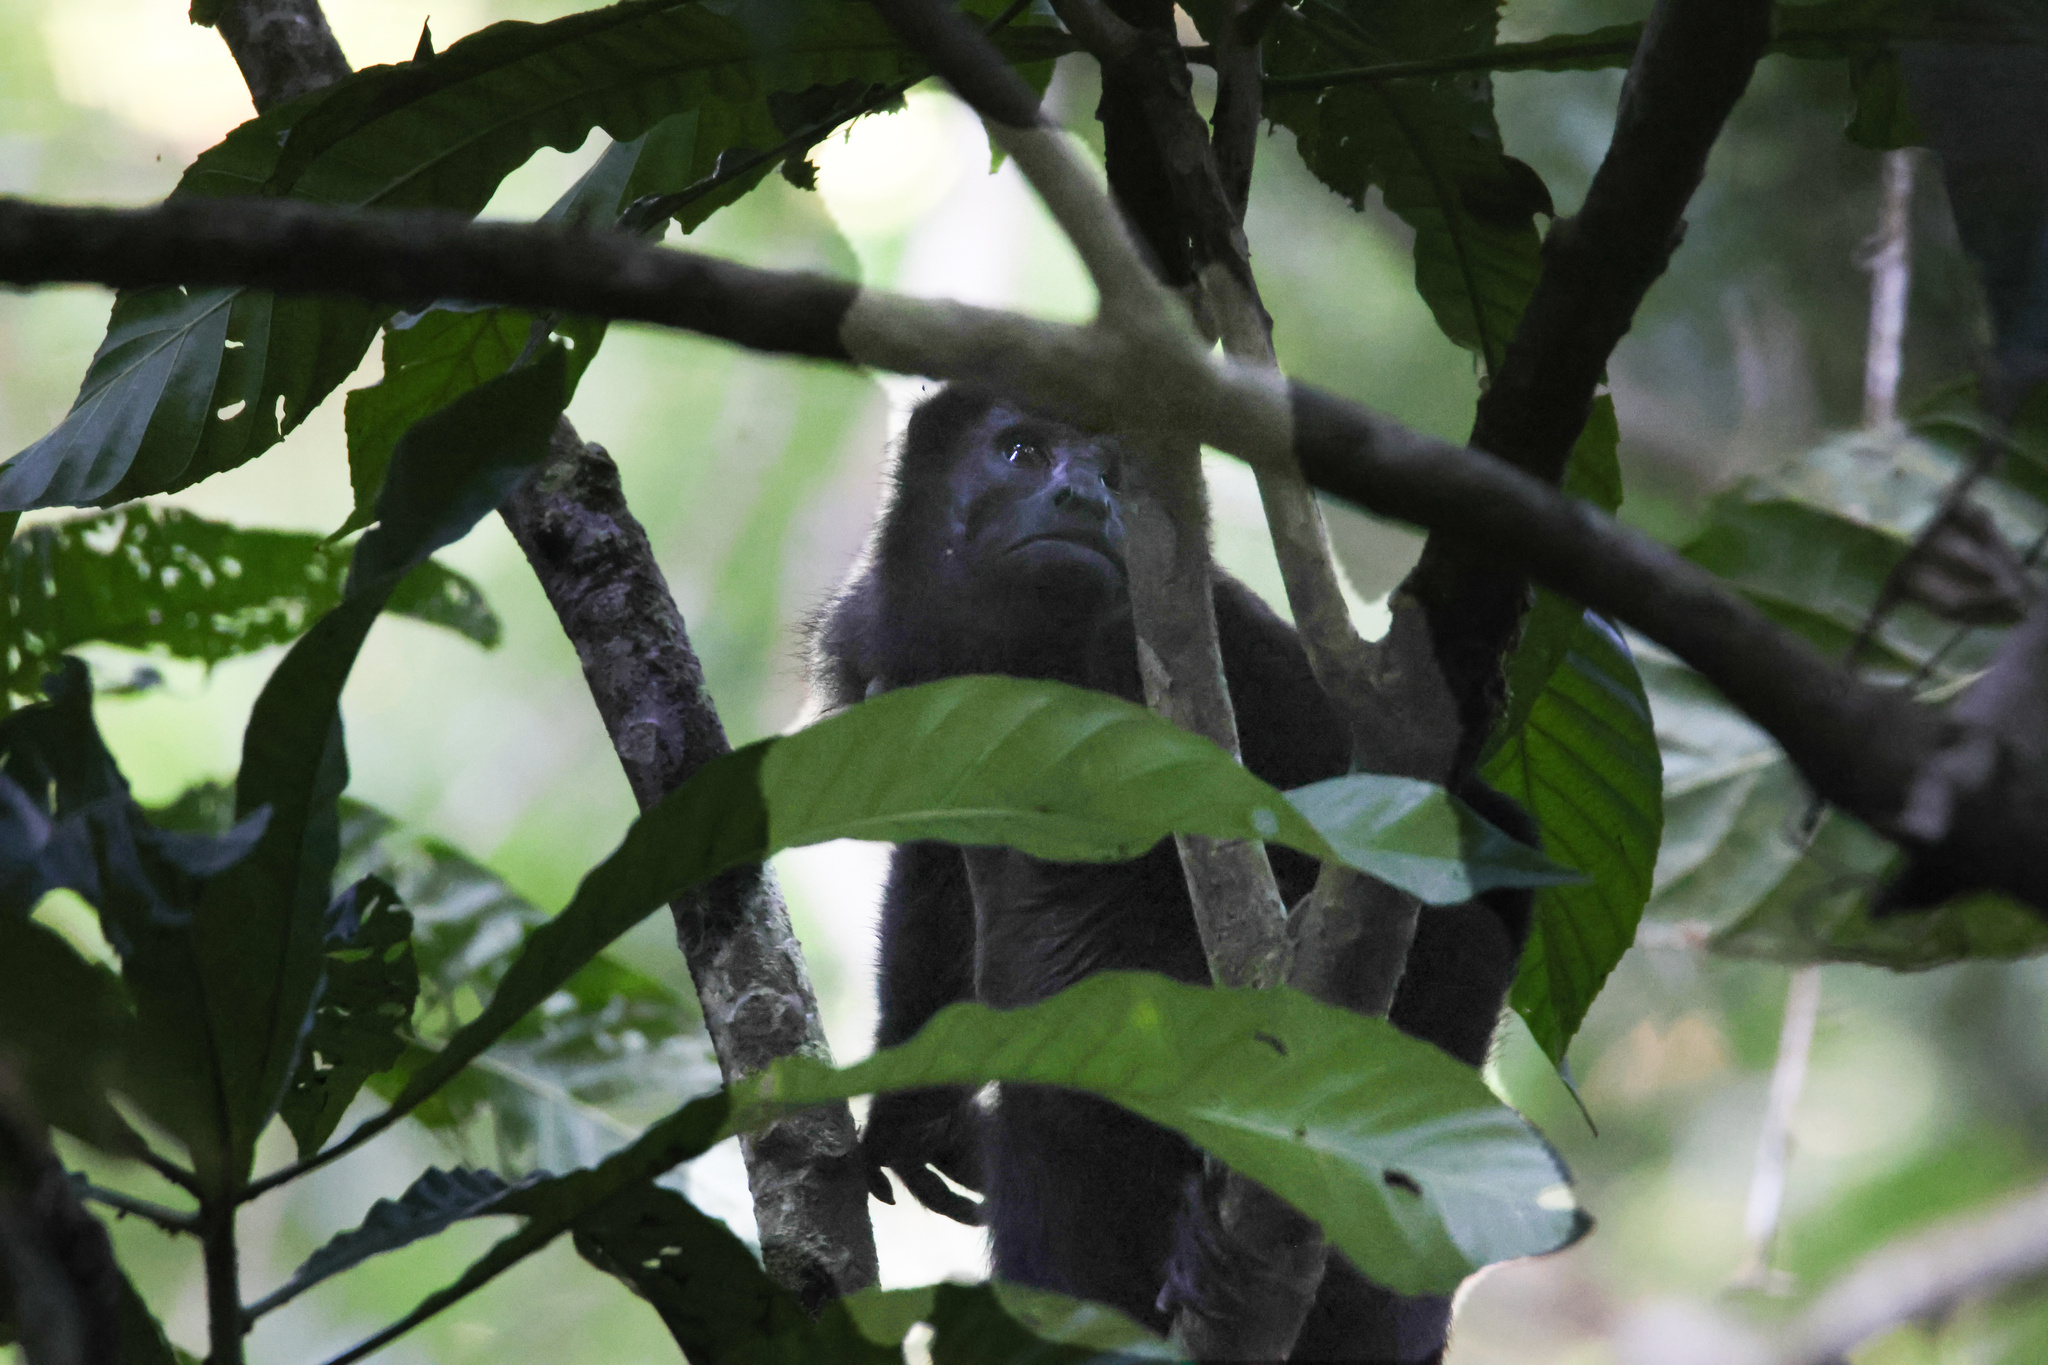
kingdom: Animalia
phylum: Chordata
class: Mammalia
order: Primates
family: Atelidae
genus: Alouatta
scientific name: Alouatta palliata
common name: Mantled howler
